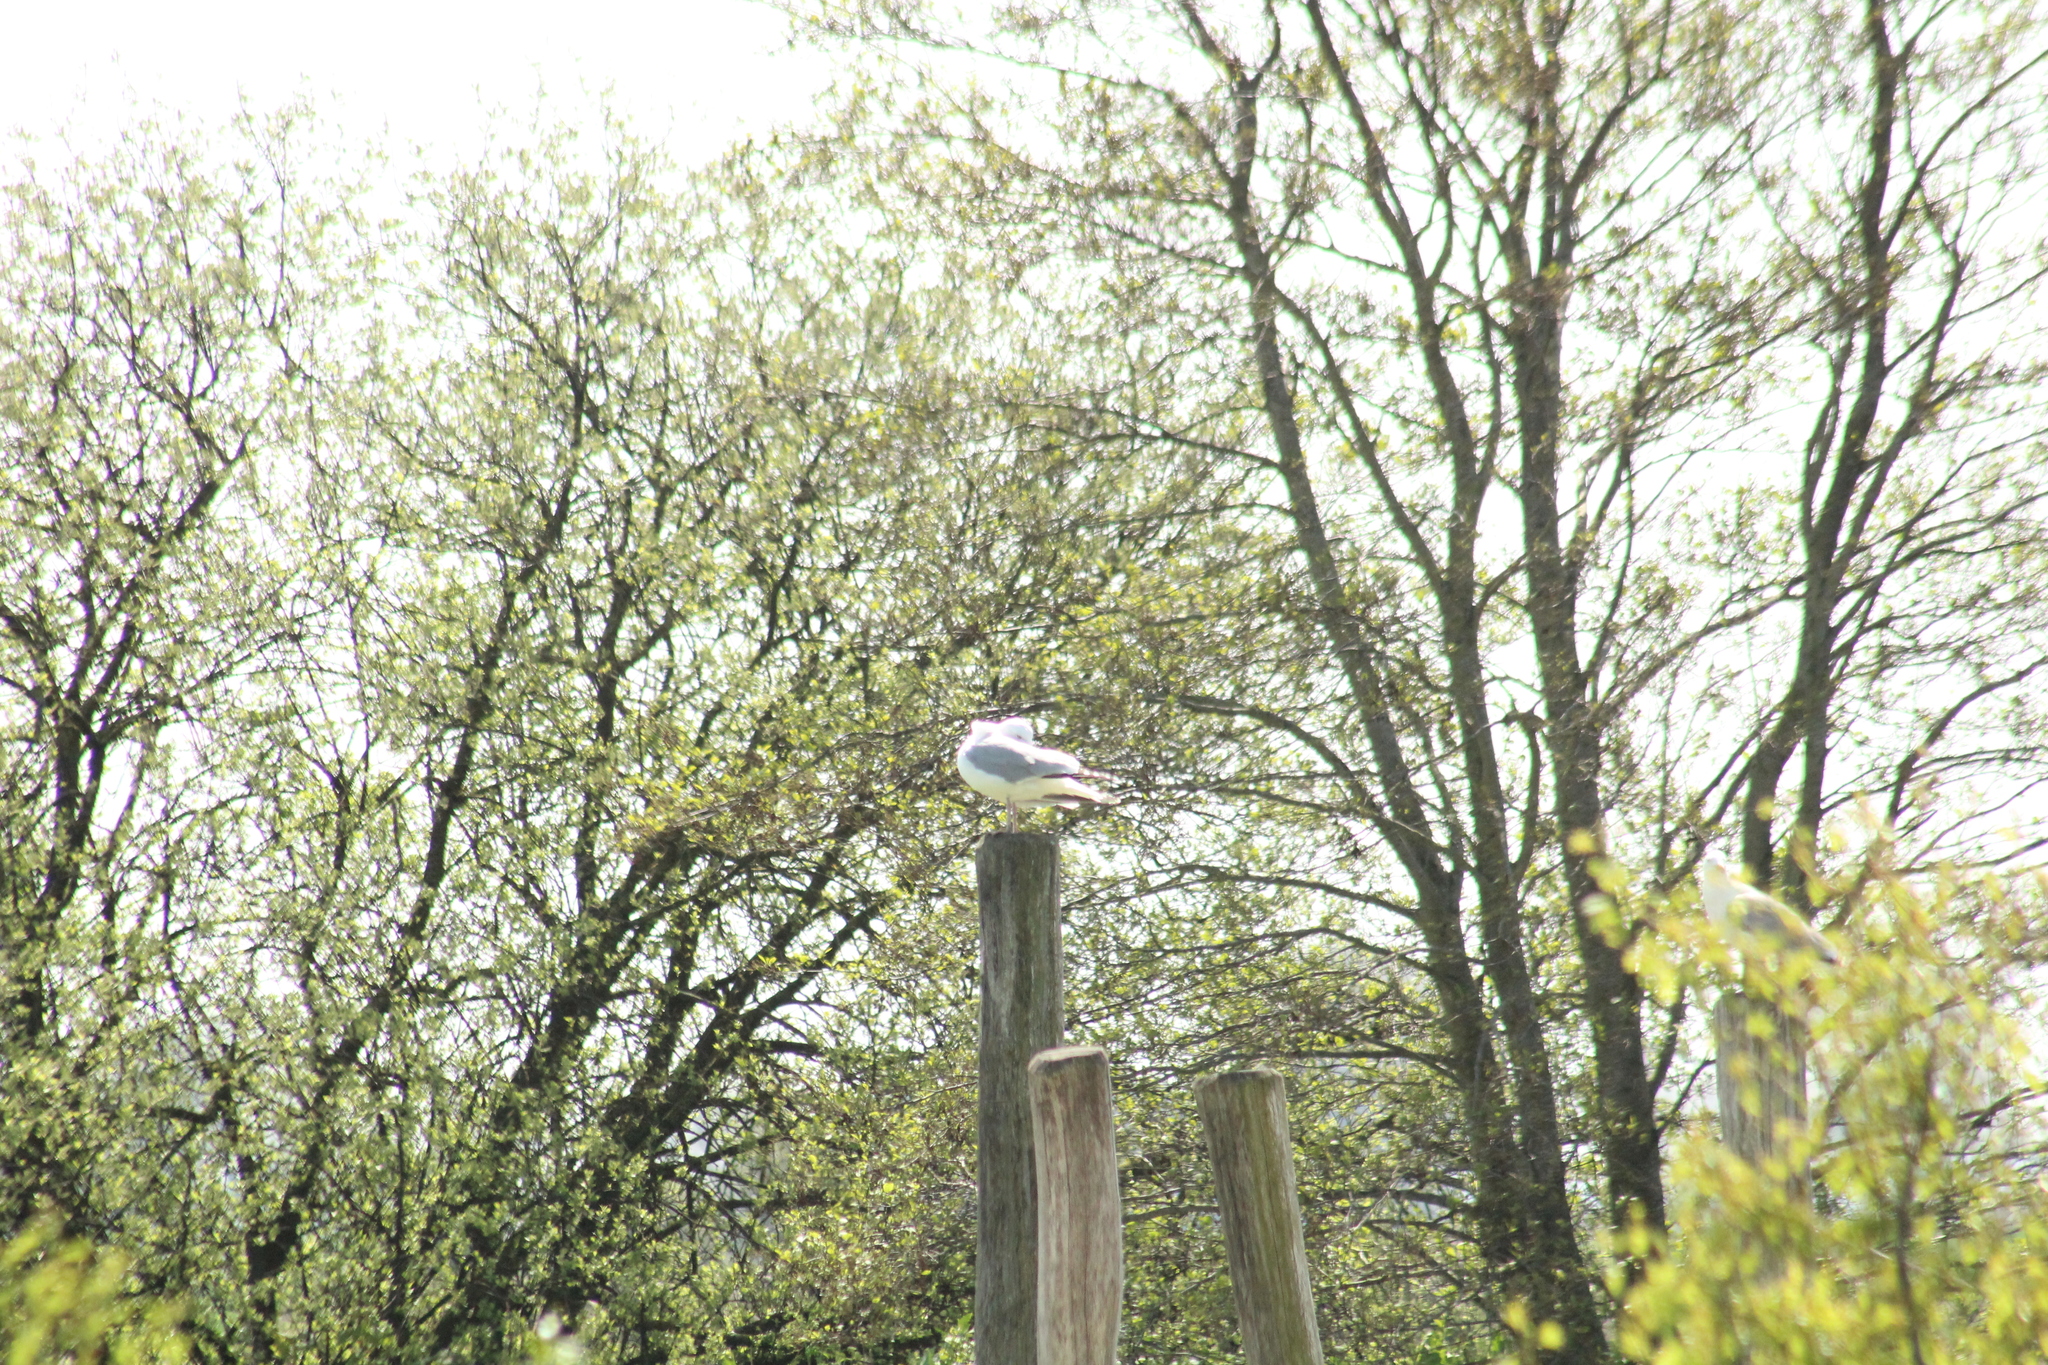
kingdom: Animalia
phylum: Chordata
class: Aves
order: Charadriiformes
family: Laridae
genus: Larus
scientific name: Larus argentatus
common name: Herring gull
